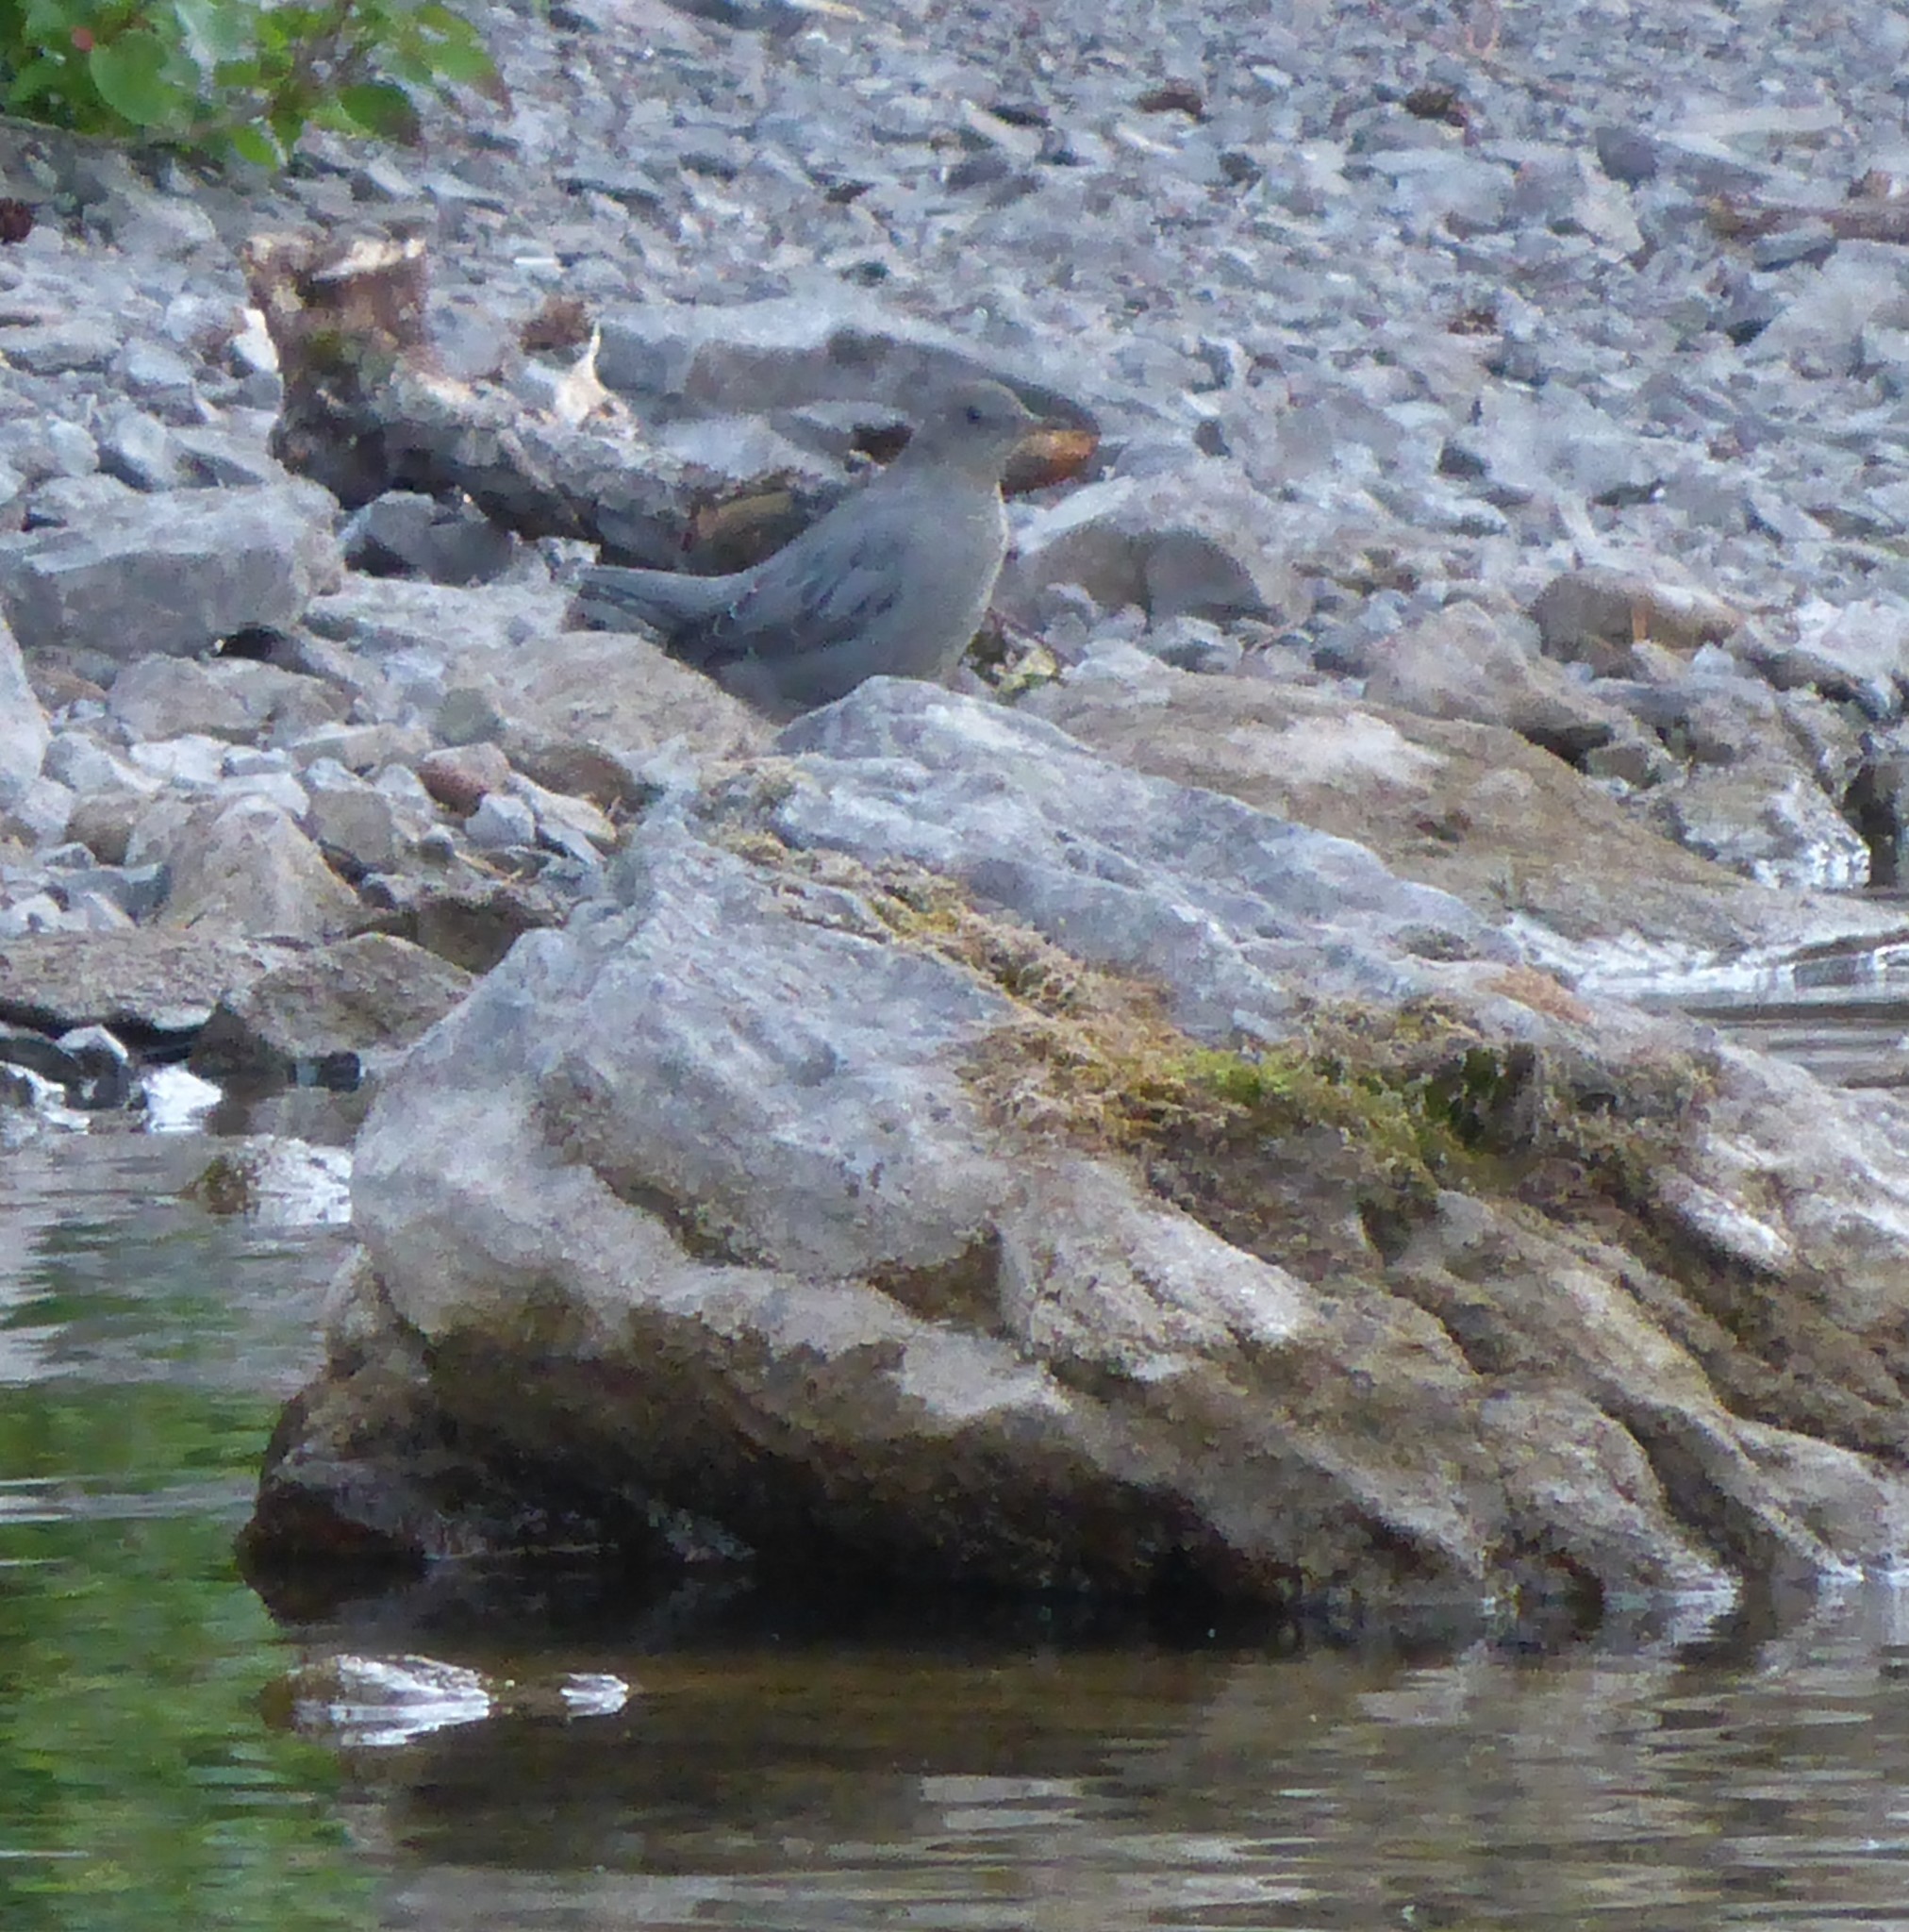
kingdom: Animalia
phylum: Chordata
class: Aves
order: Passeriformes
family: Cinclidae
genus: Cinclus
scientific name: Cinclus mexicanus
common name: American dipper
